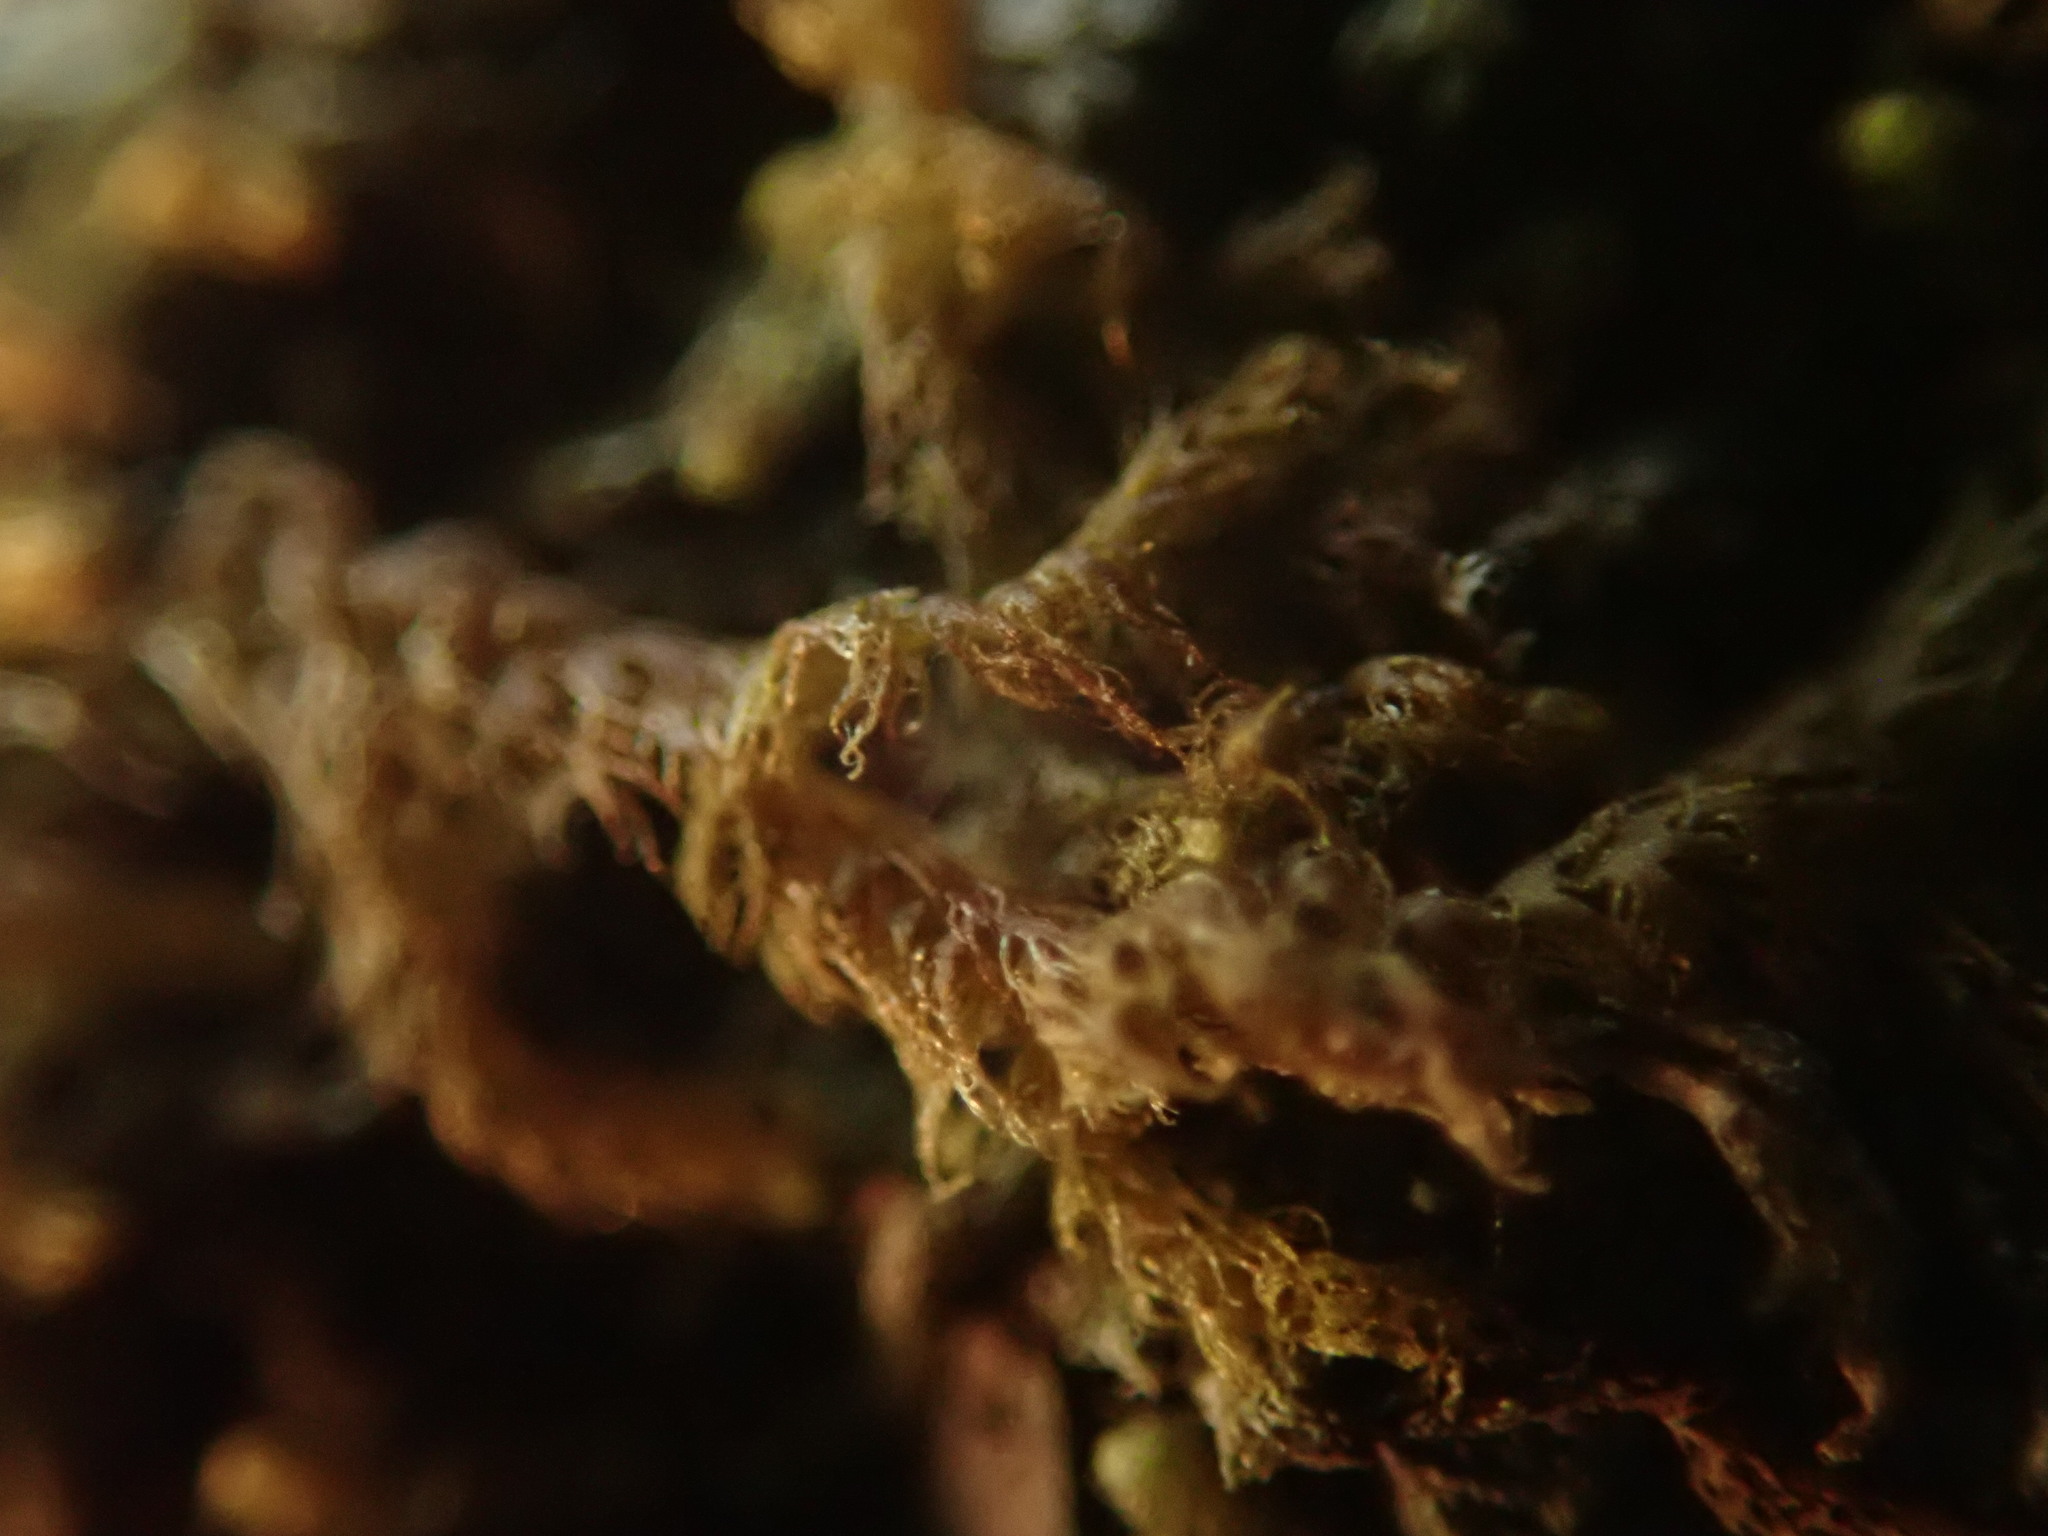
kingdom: Plantae
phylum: Marchantiophyta
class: Jungermanniopsida
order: Ptilidiales
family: Ptilidiaceae
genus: Ptilidium
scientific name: Ptilidium californicum
